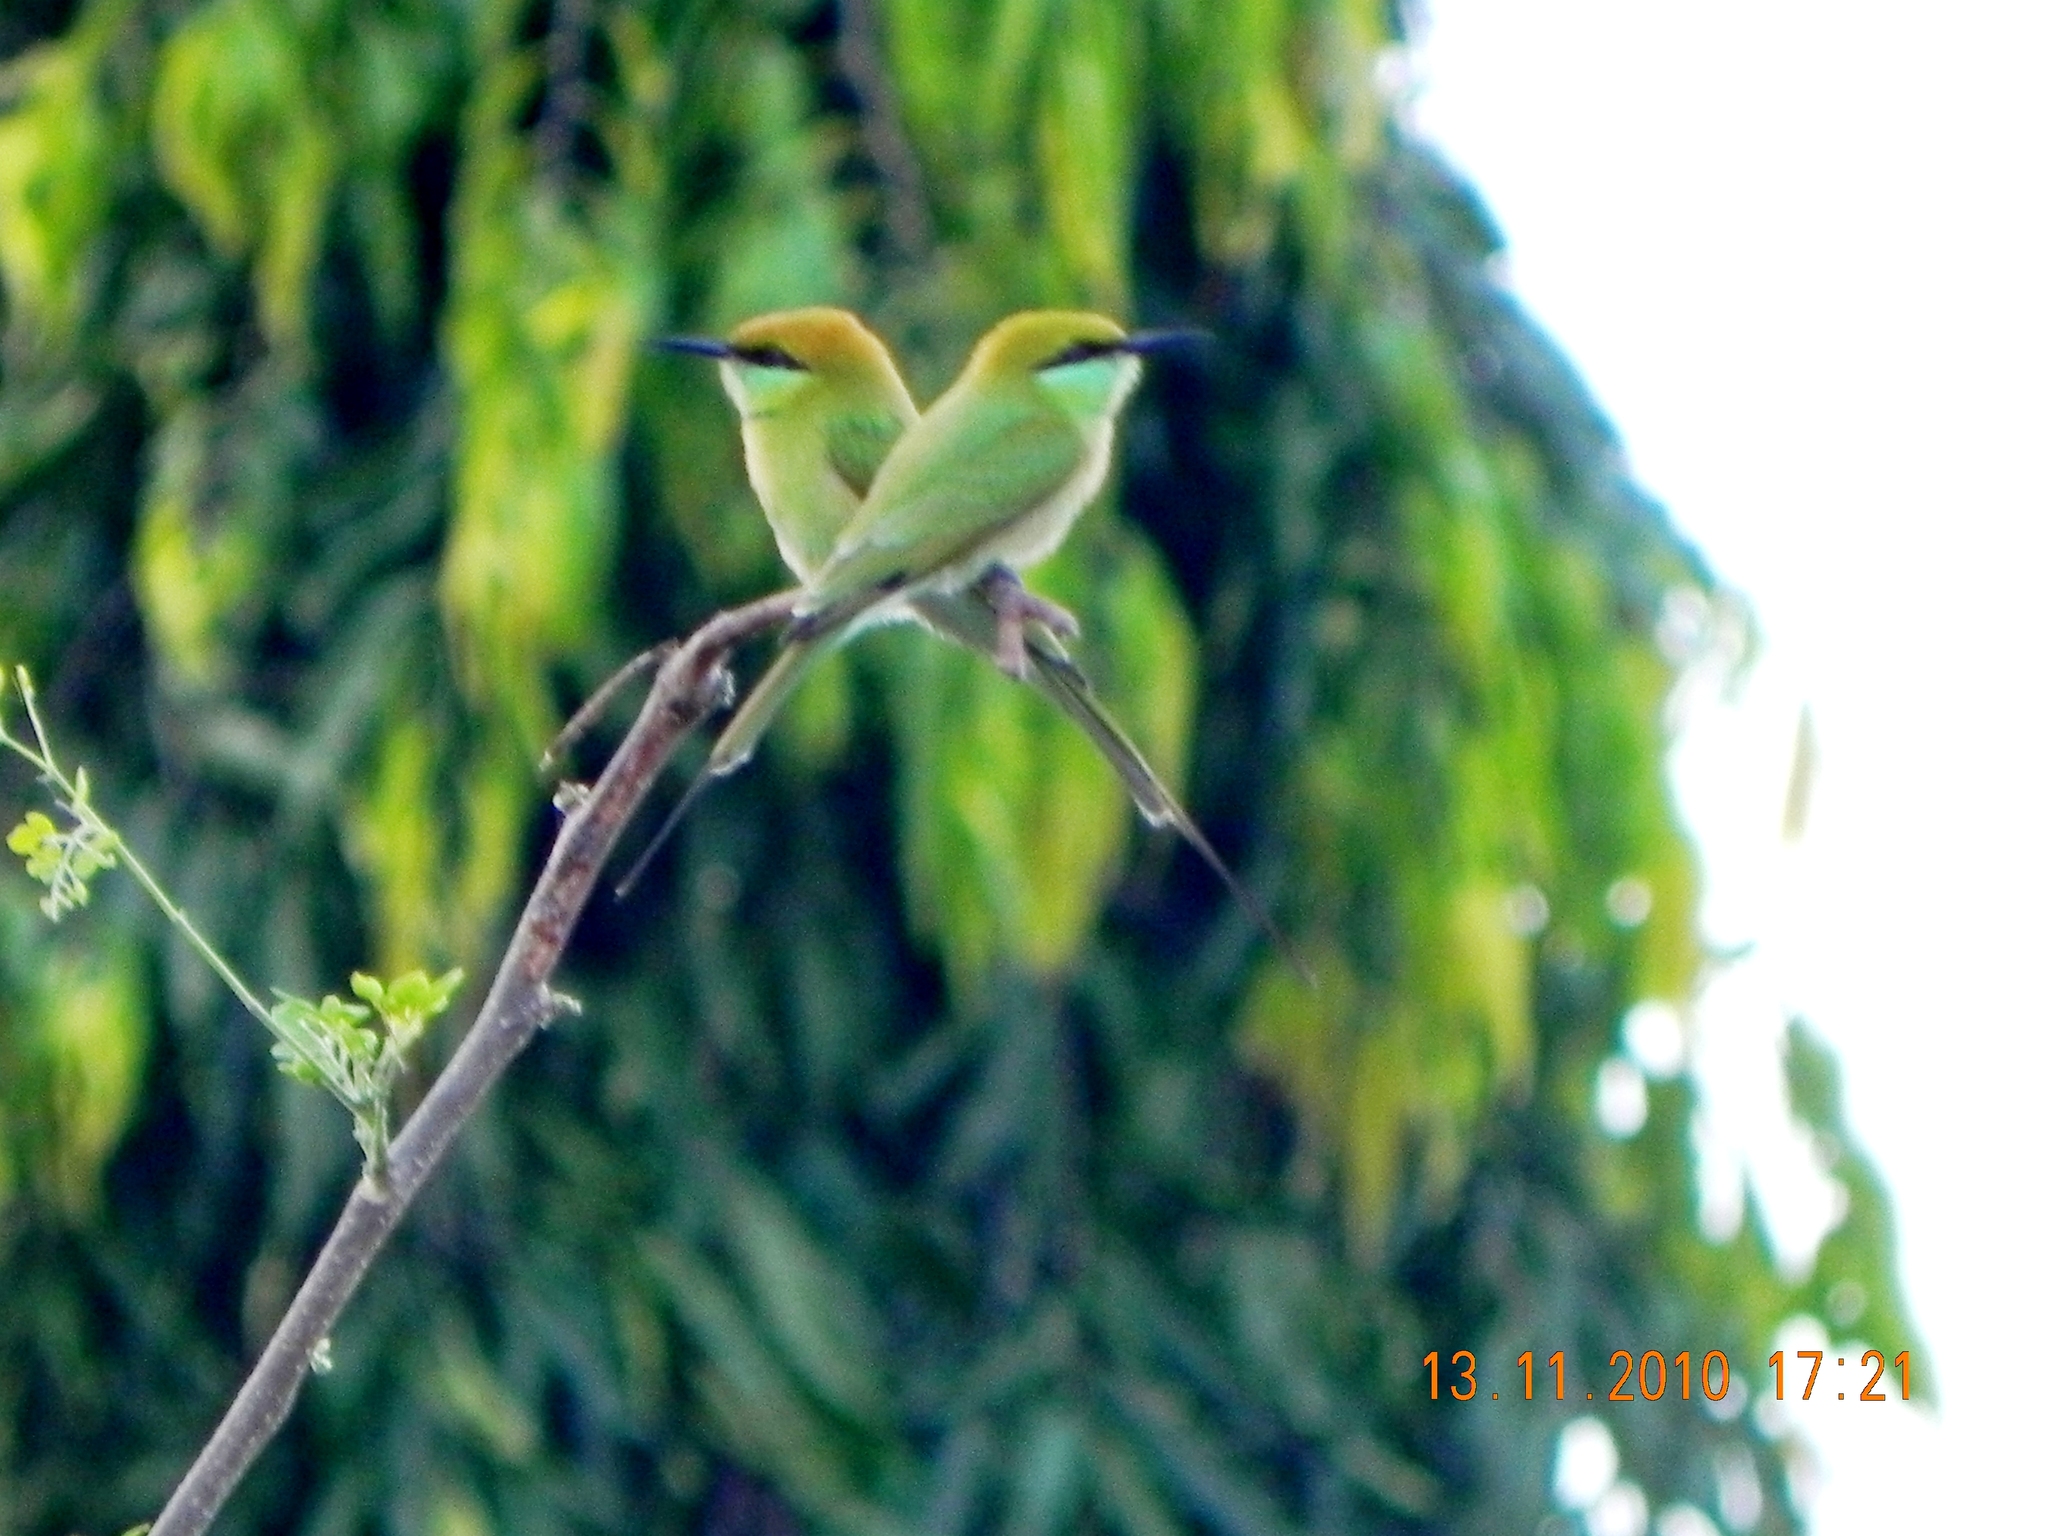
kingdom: Animalia
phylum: Chordata
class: Aves
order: Coraciiformes
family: Meropidae
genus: Merops
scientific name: Merops orientalis
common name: Green bee-eater
